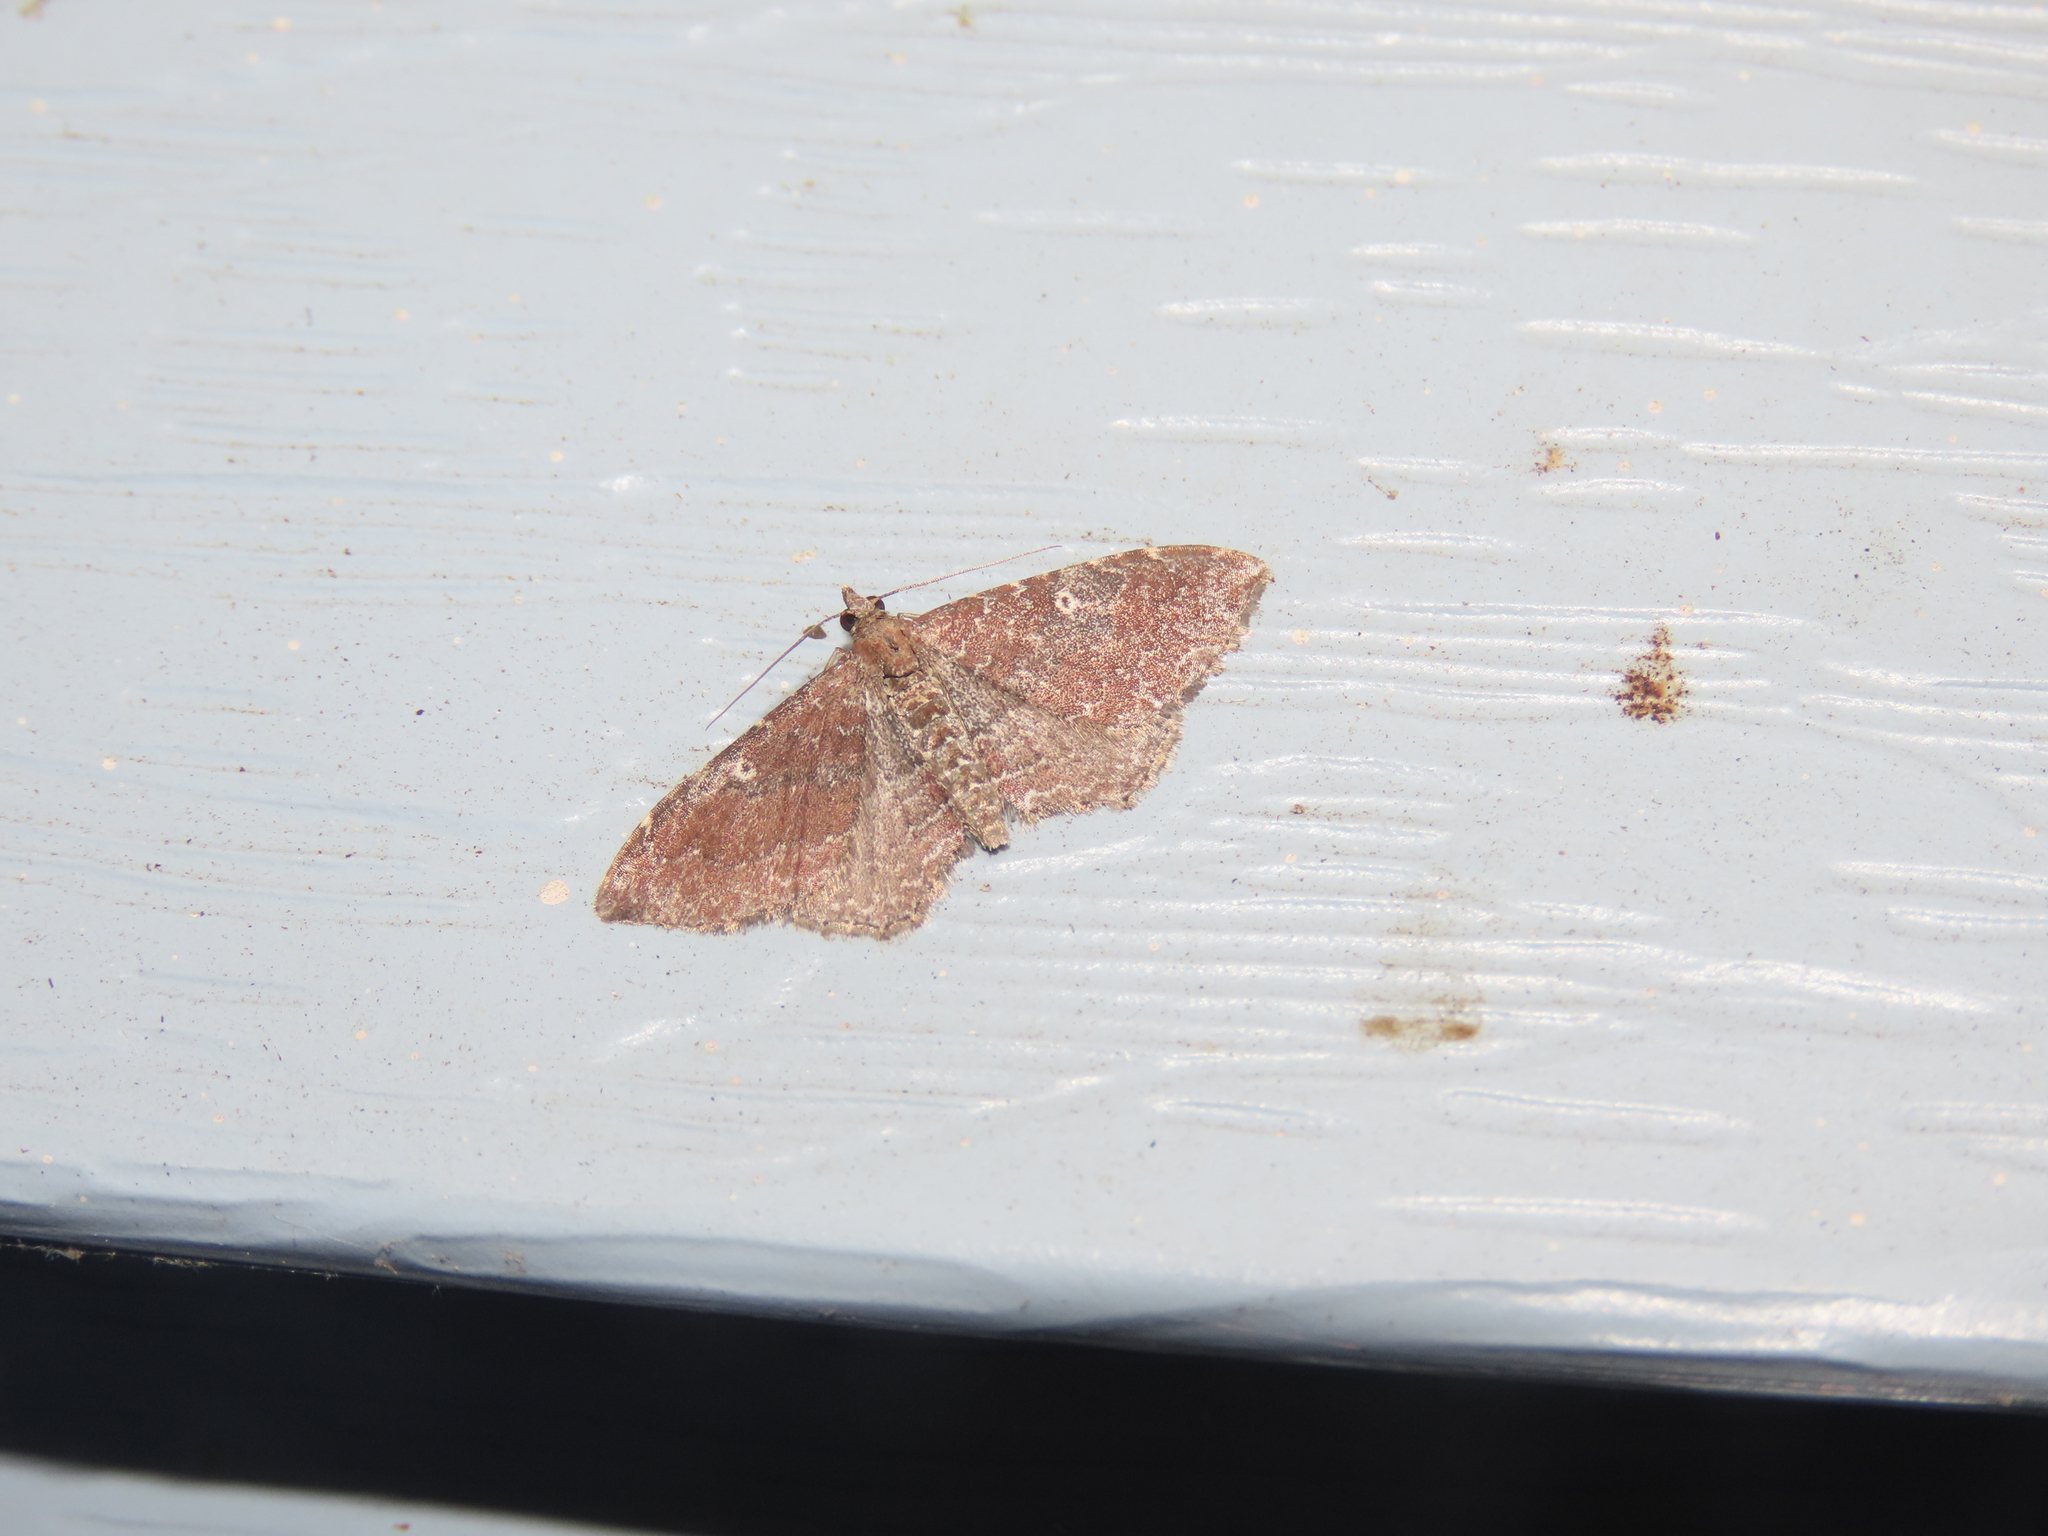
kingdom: Animalia
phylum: Arthropoda
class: Insecta
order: Lepidoptera
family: Geometridae
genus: Orthonama
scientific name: Orthonama obstipata
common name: The gem
